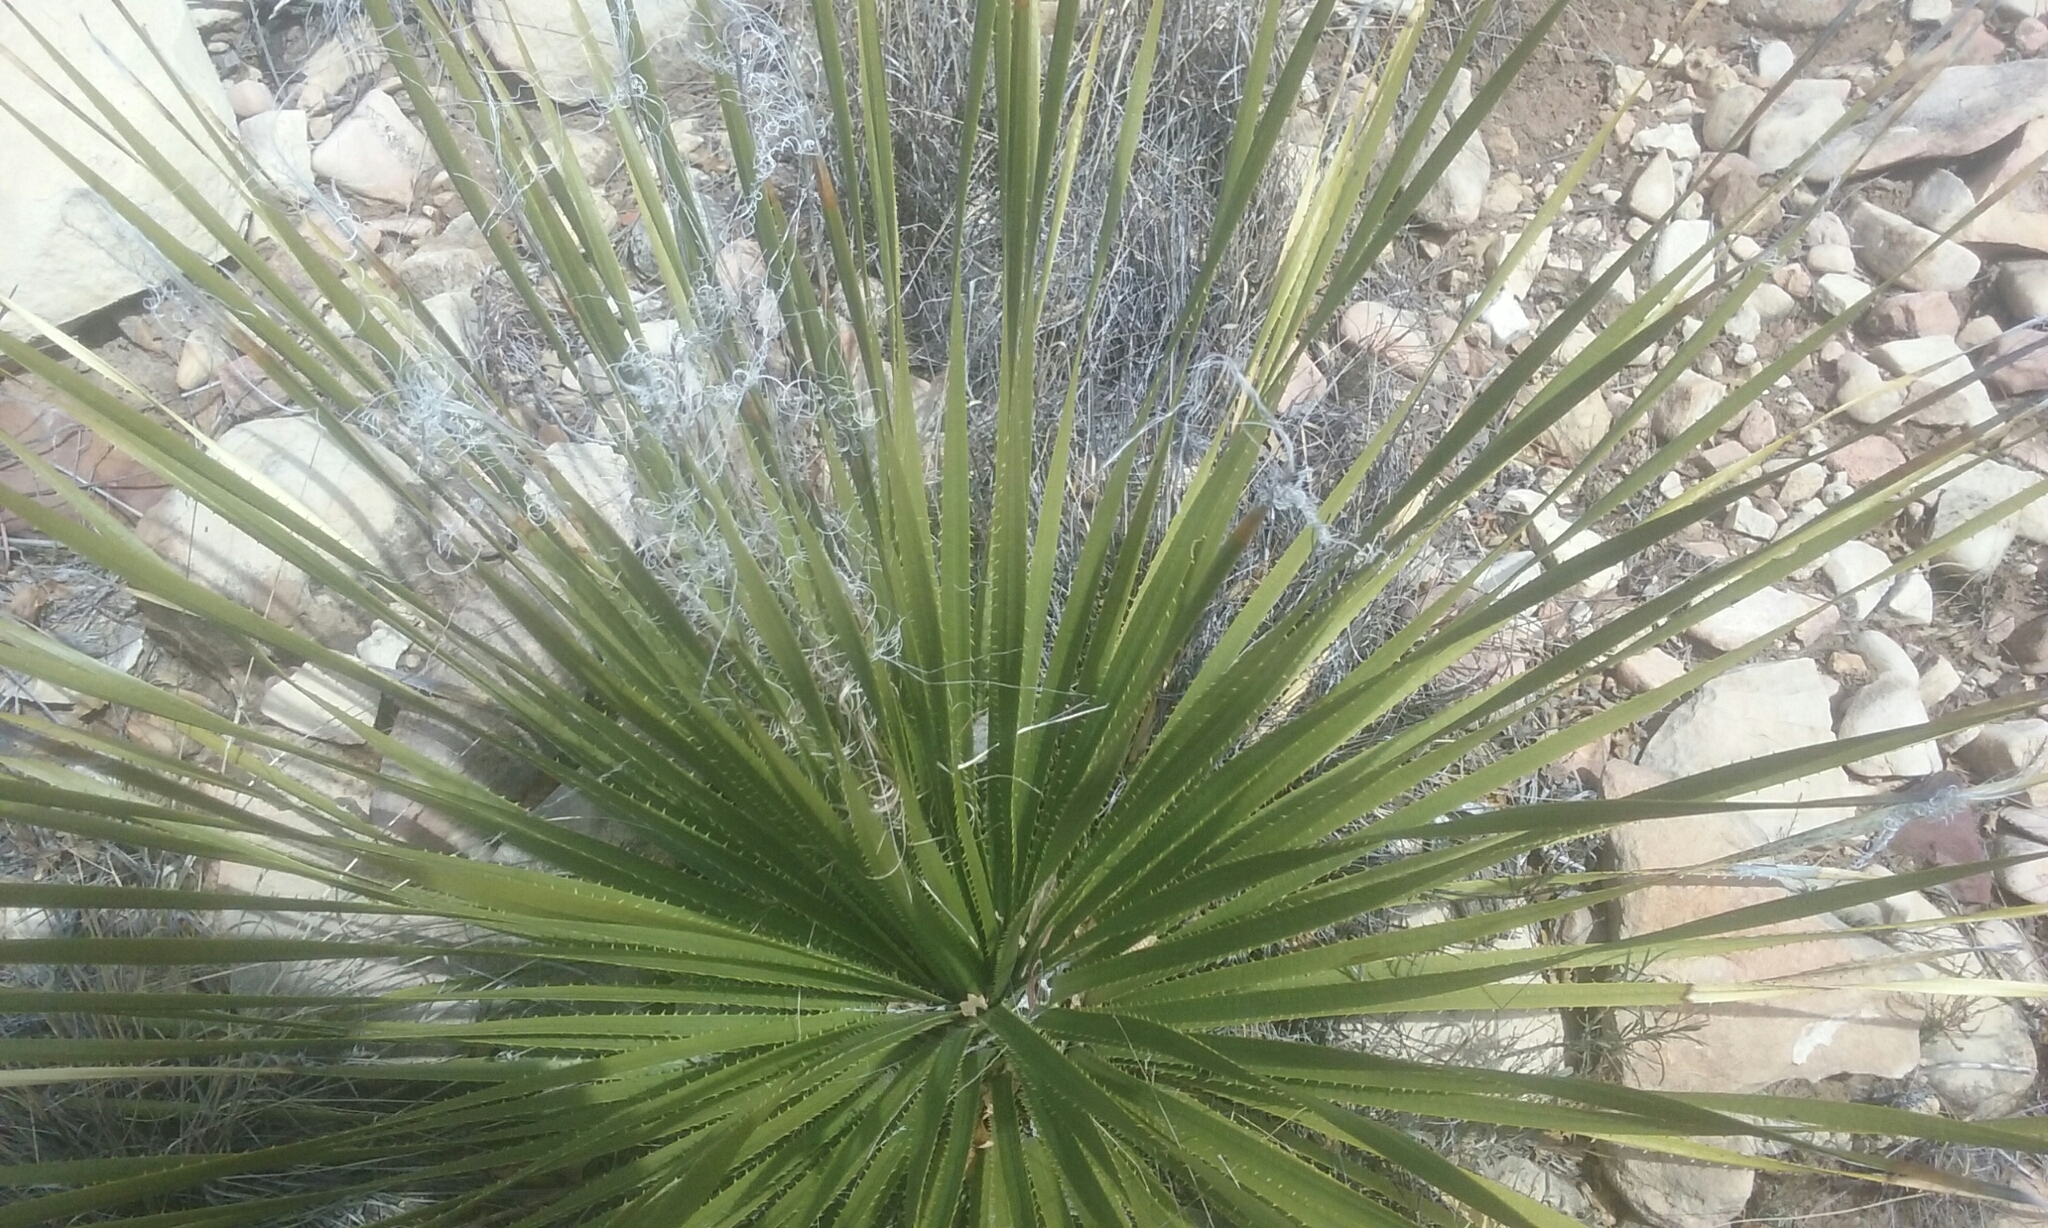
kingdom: Plantae
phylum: Tracheophyta
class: Liliopsida
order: Asparagales
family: Asparagaceae
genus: Dasylirion
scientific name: Dasylirion leiophyllum
